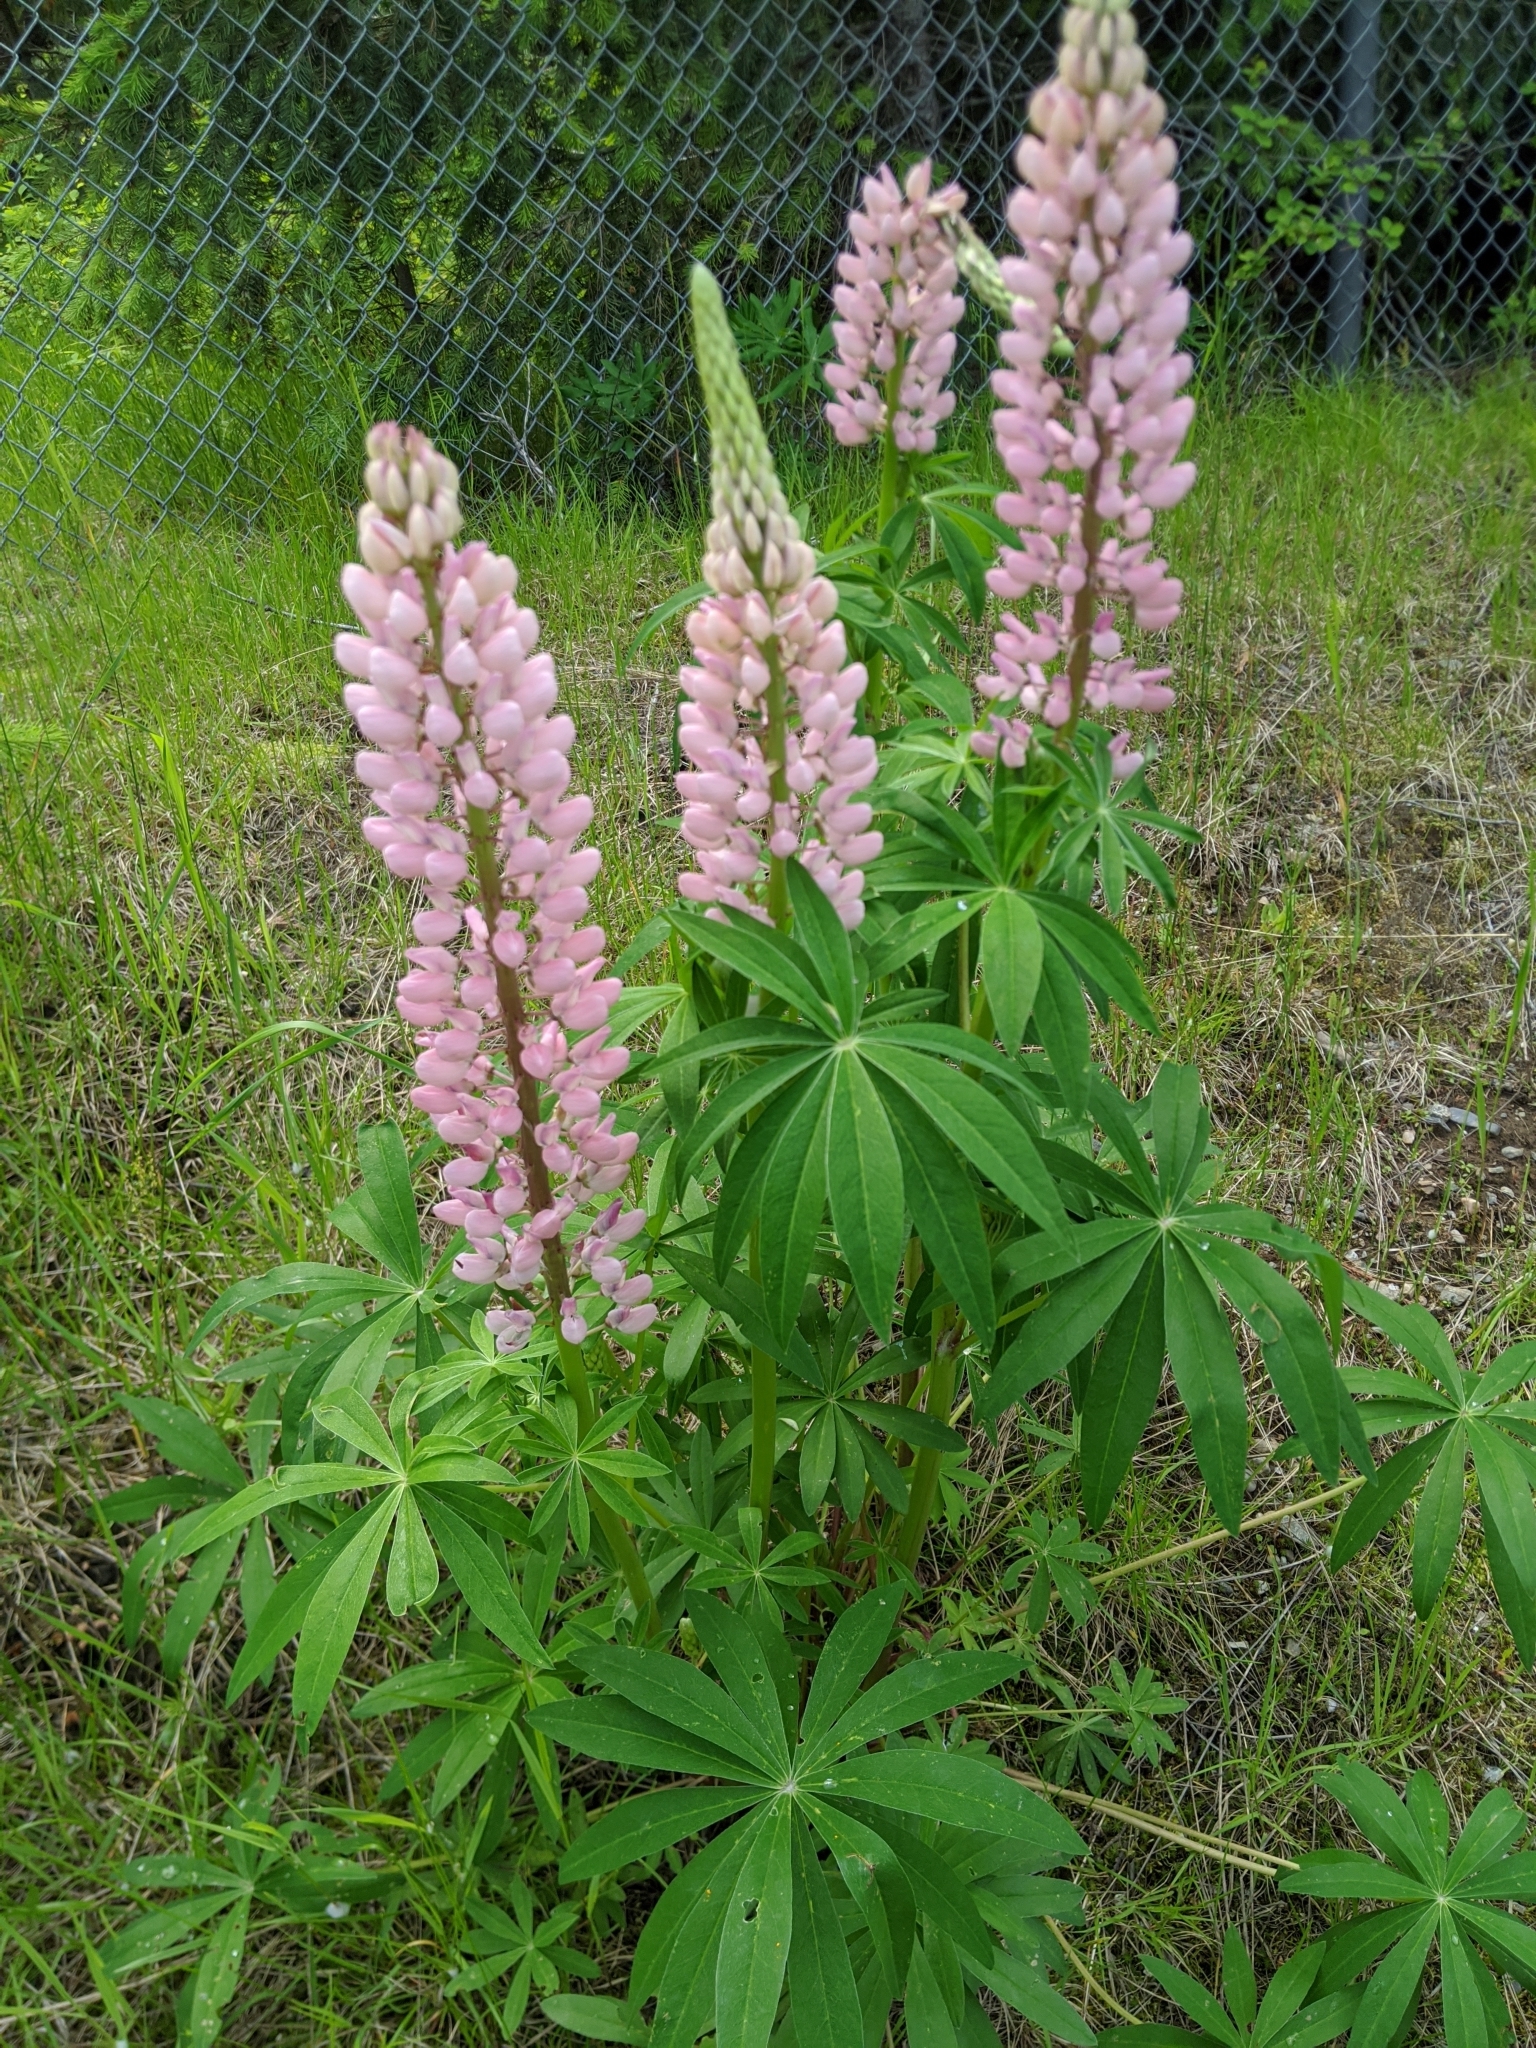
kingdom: Plantae
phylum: Tracheophyta
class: Magnoliopsida
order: Fabales
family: Fabaceae
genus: Lupinus
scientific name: Lupinus polyphyllus
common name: Garden lupin
